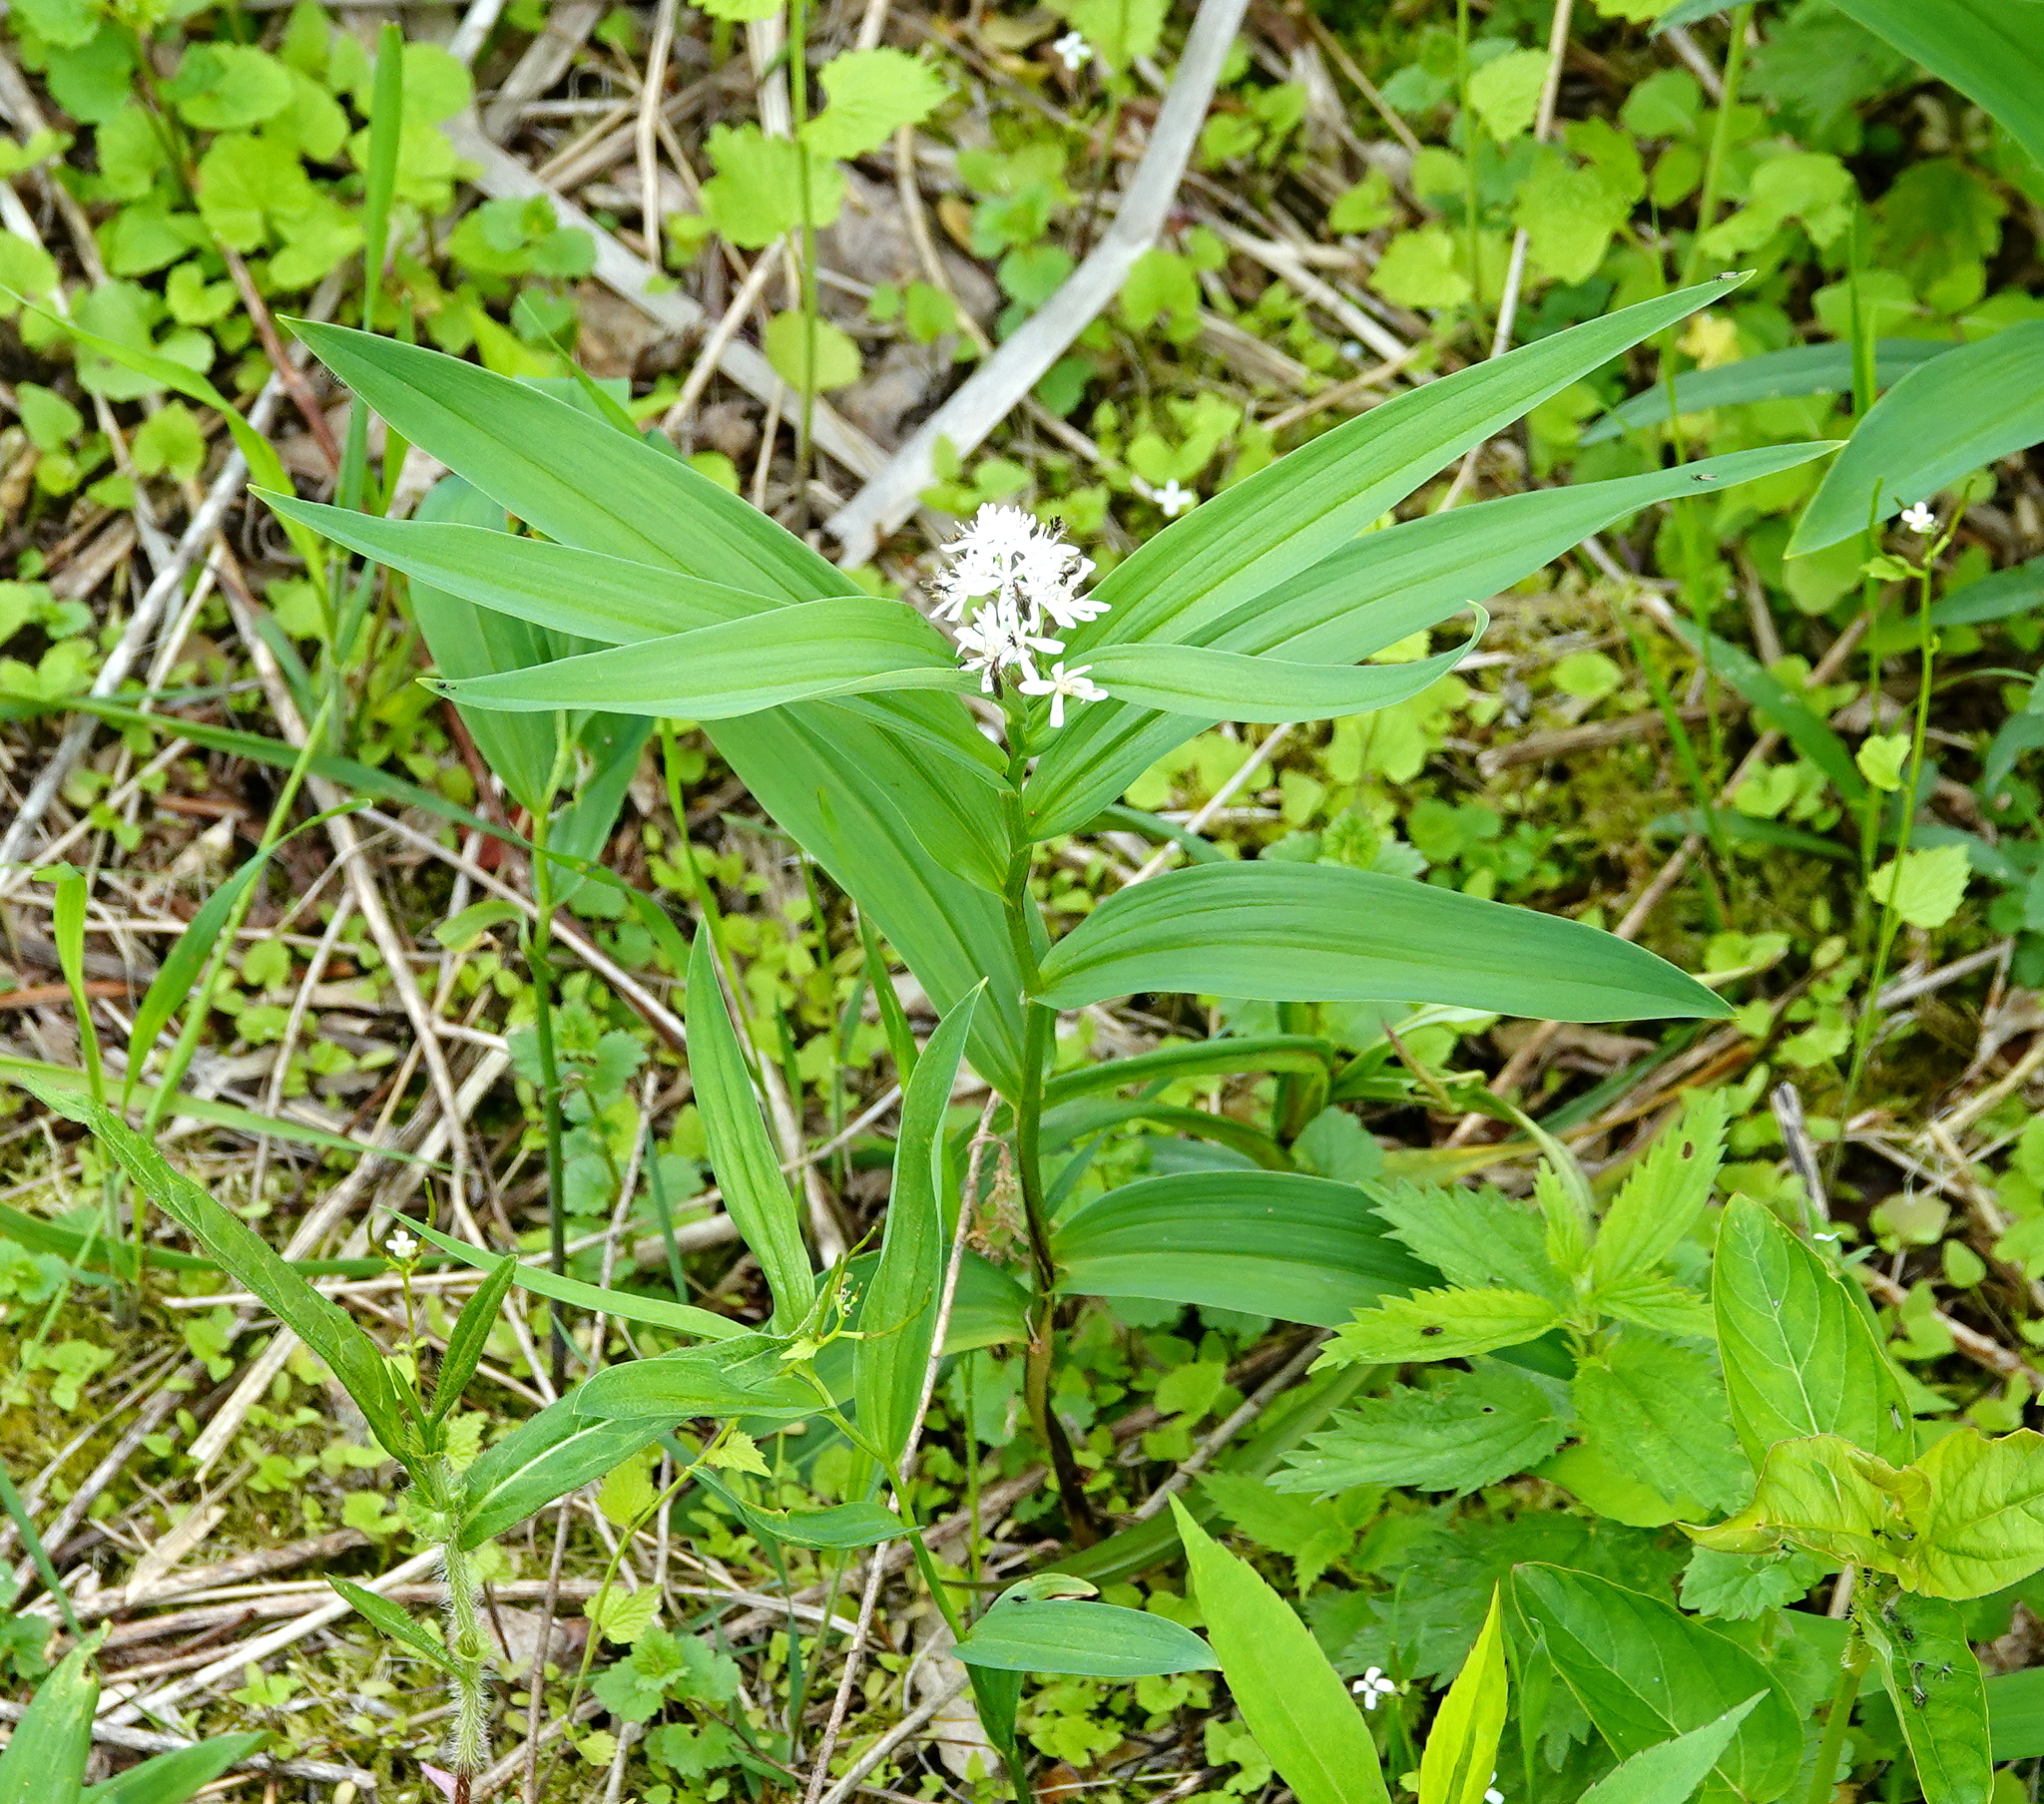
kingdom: Plantae
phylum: Tracheophyta
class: Liliopsida
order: Asparagales
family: Asparagaceae
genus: Maianthemum
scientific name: Maianthemum stellatum
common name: Little false solomon's seal
